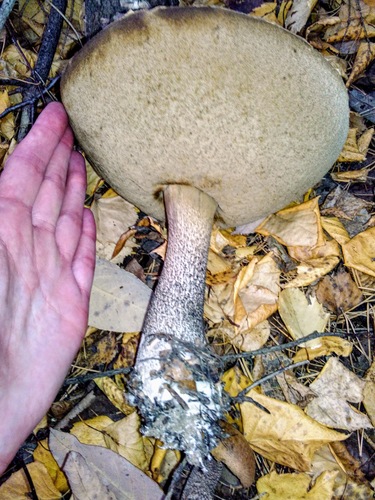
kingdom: Fungi
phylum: Basidiomycota
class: Agaricomycetes
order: Boletales
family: Boletaceae
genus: Leccinum
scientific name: Leccinum
